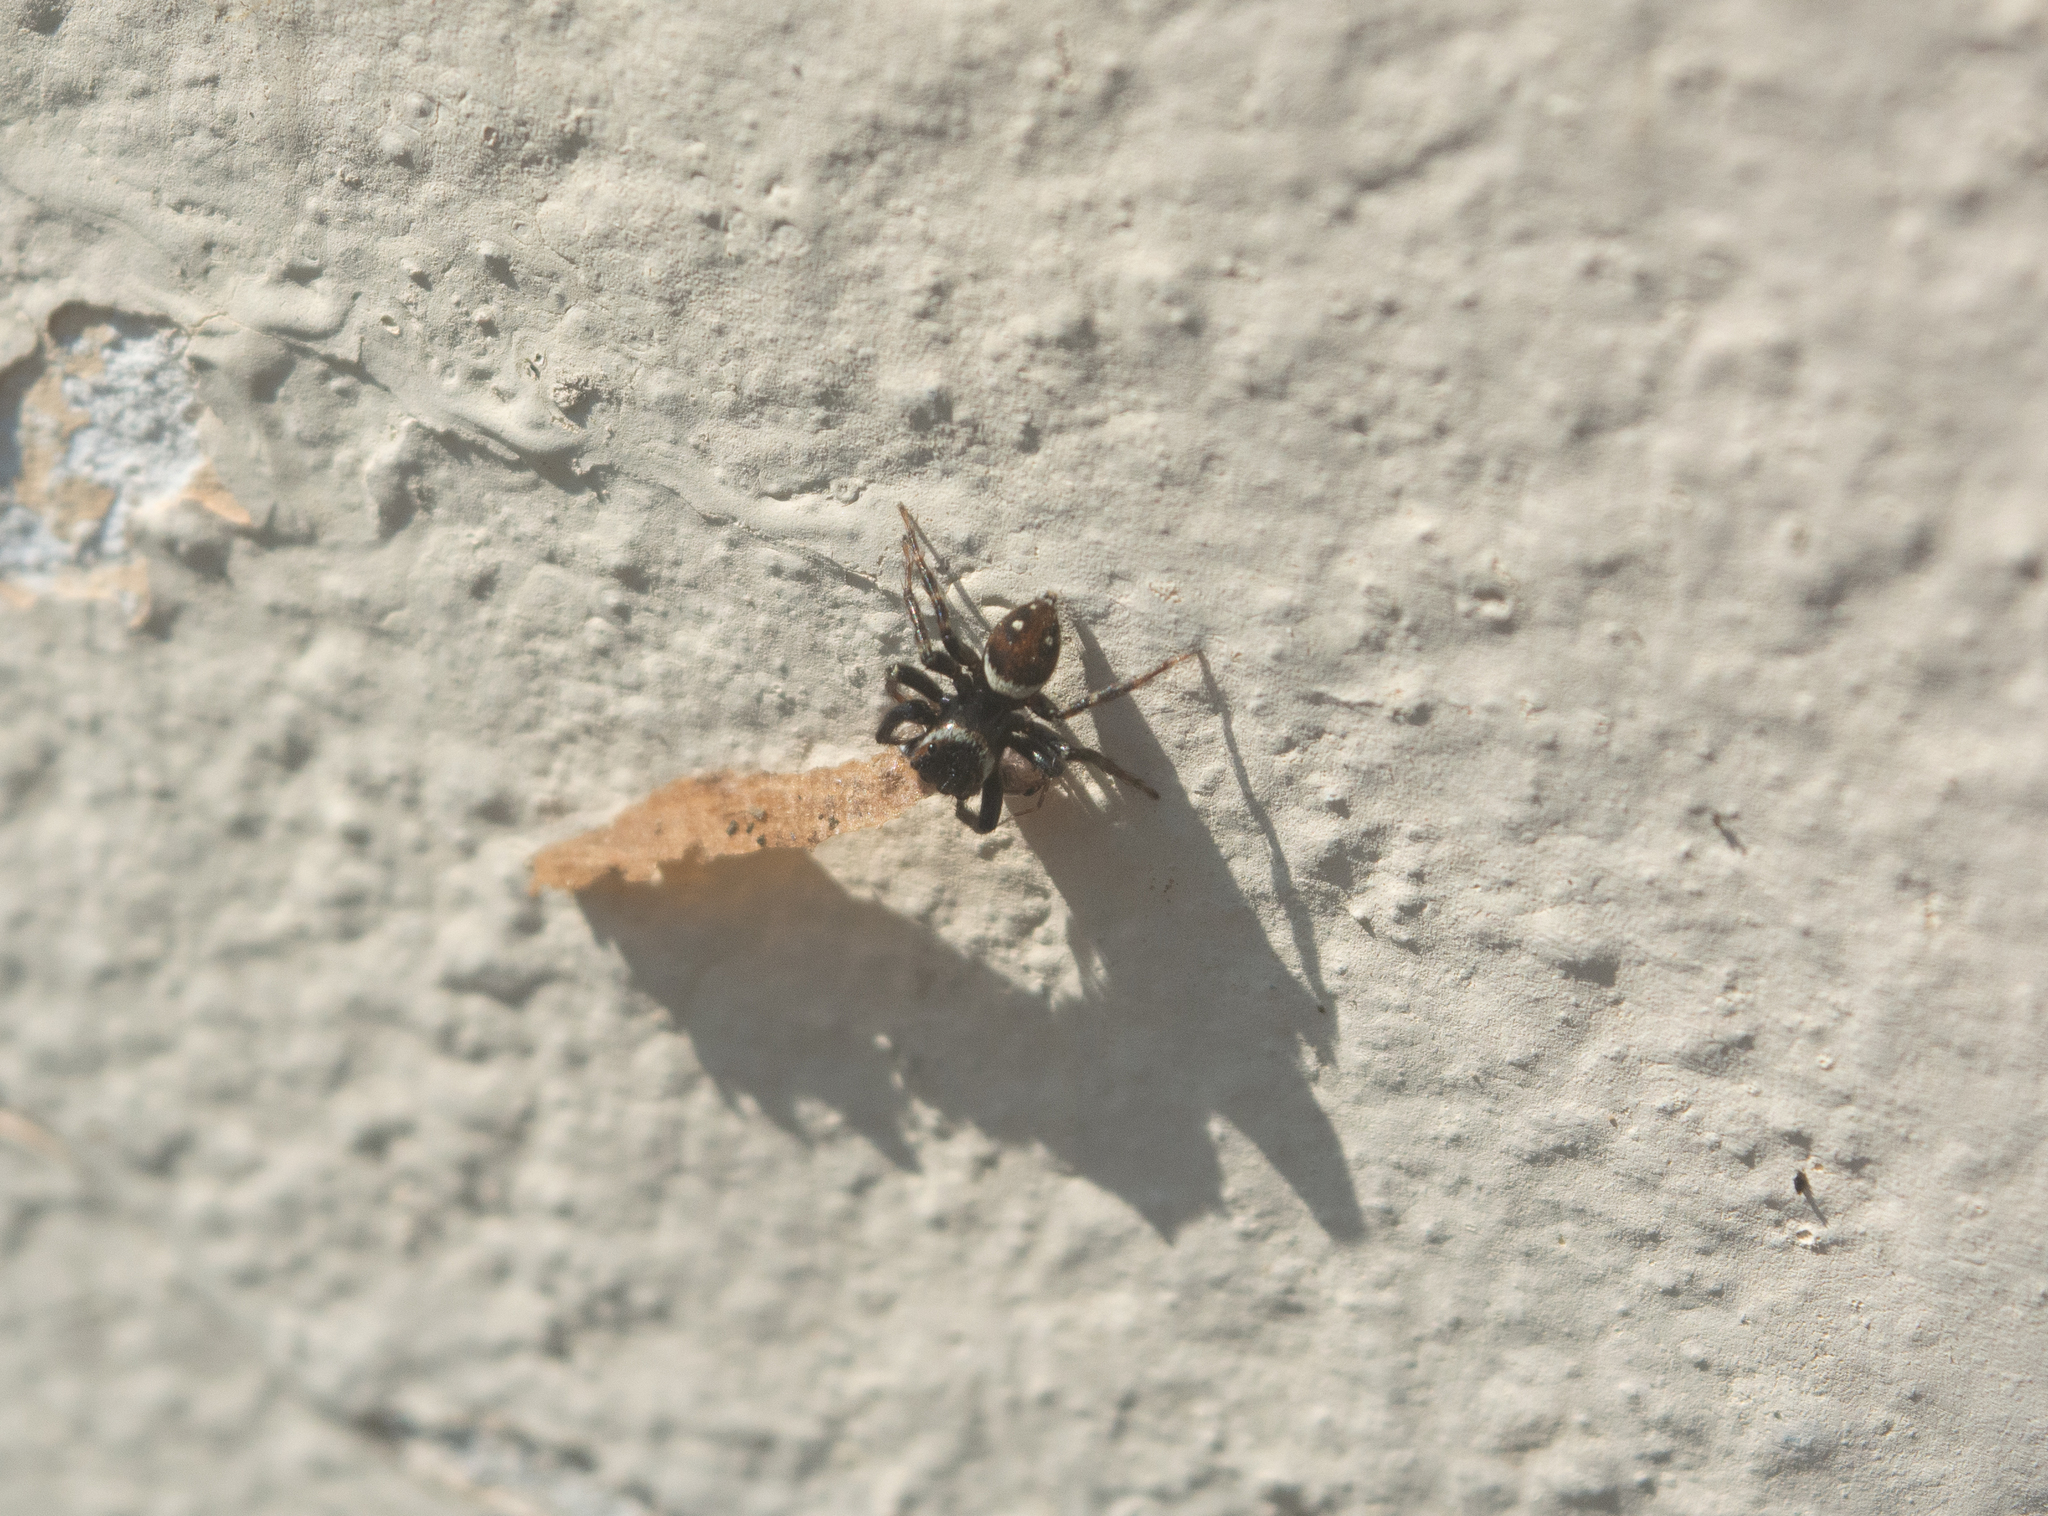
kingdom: Animalia
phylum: Arthropoda
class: Arachnida
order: Araneae
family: Salticidae
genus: Hasarius
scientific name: Hasarius adansoni
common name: Jumping spider
